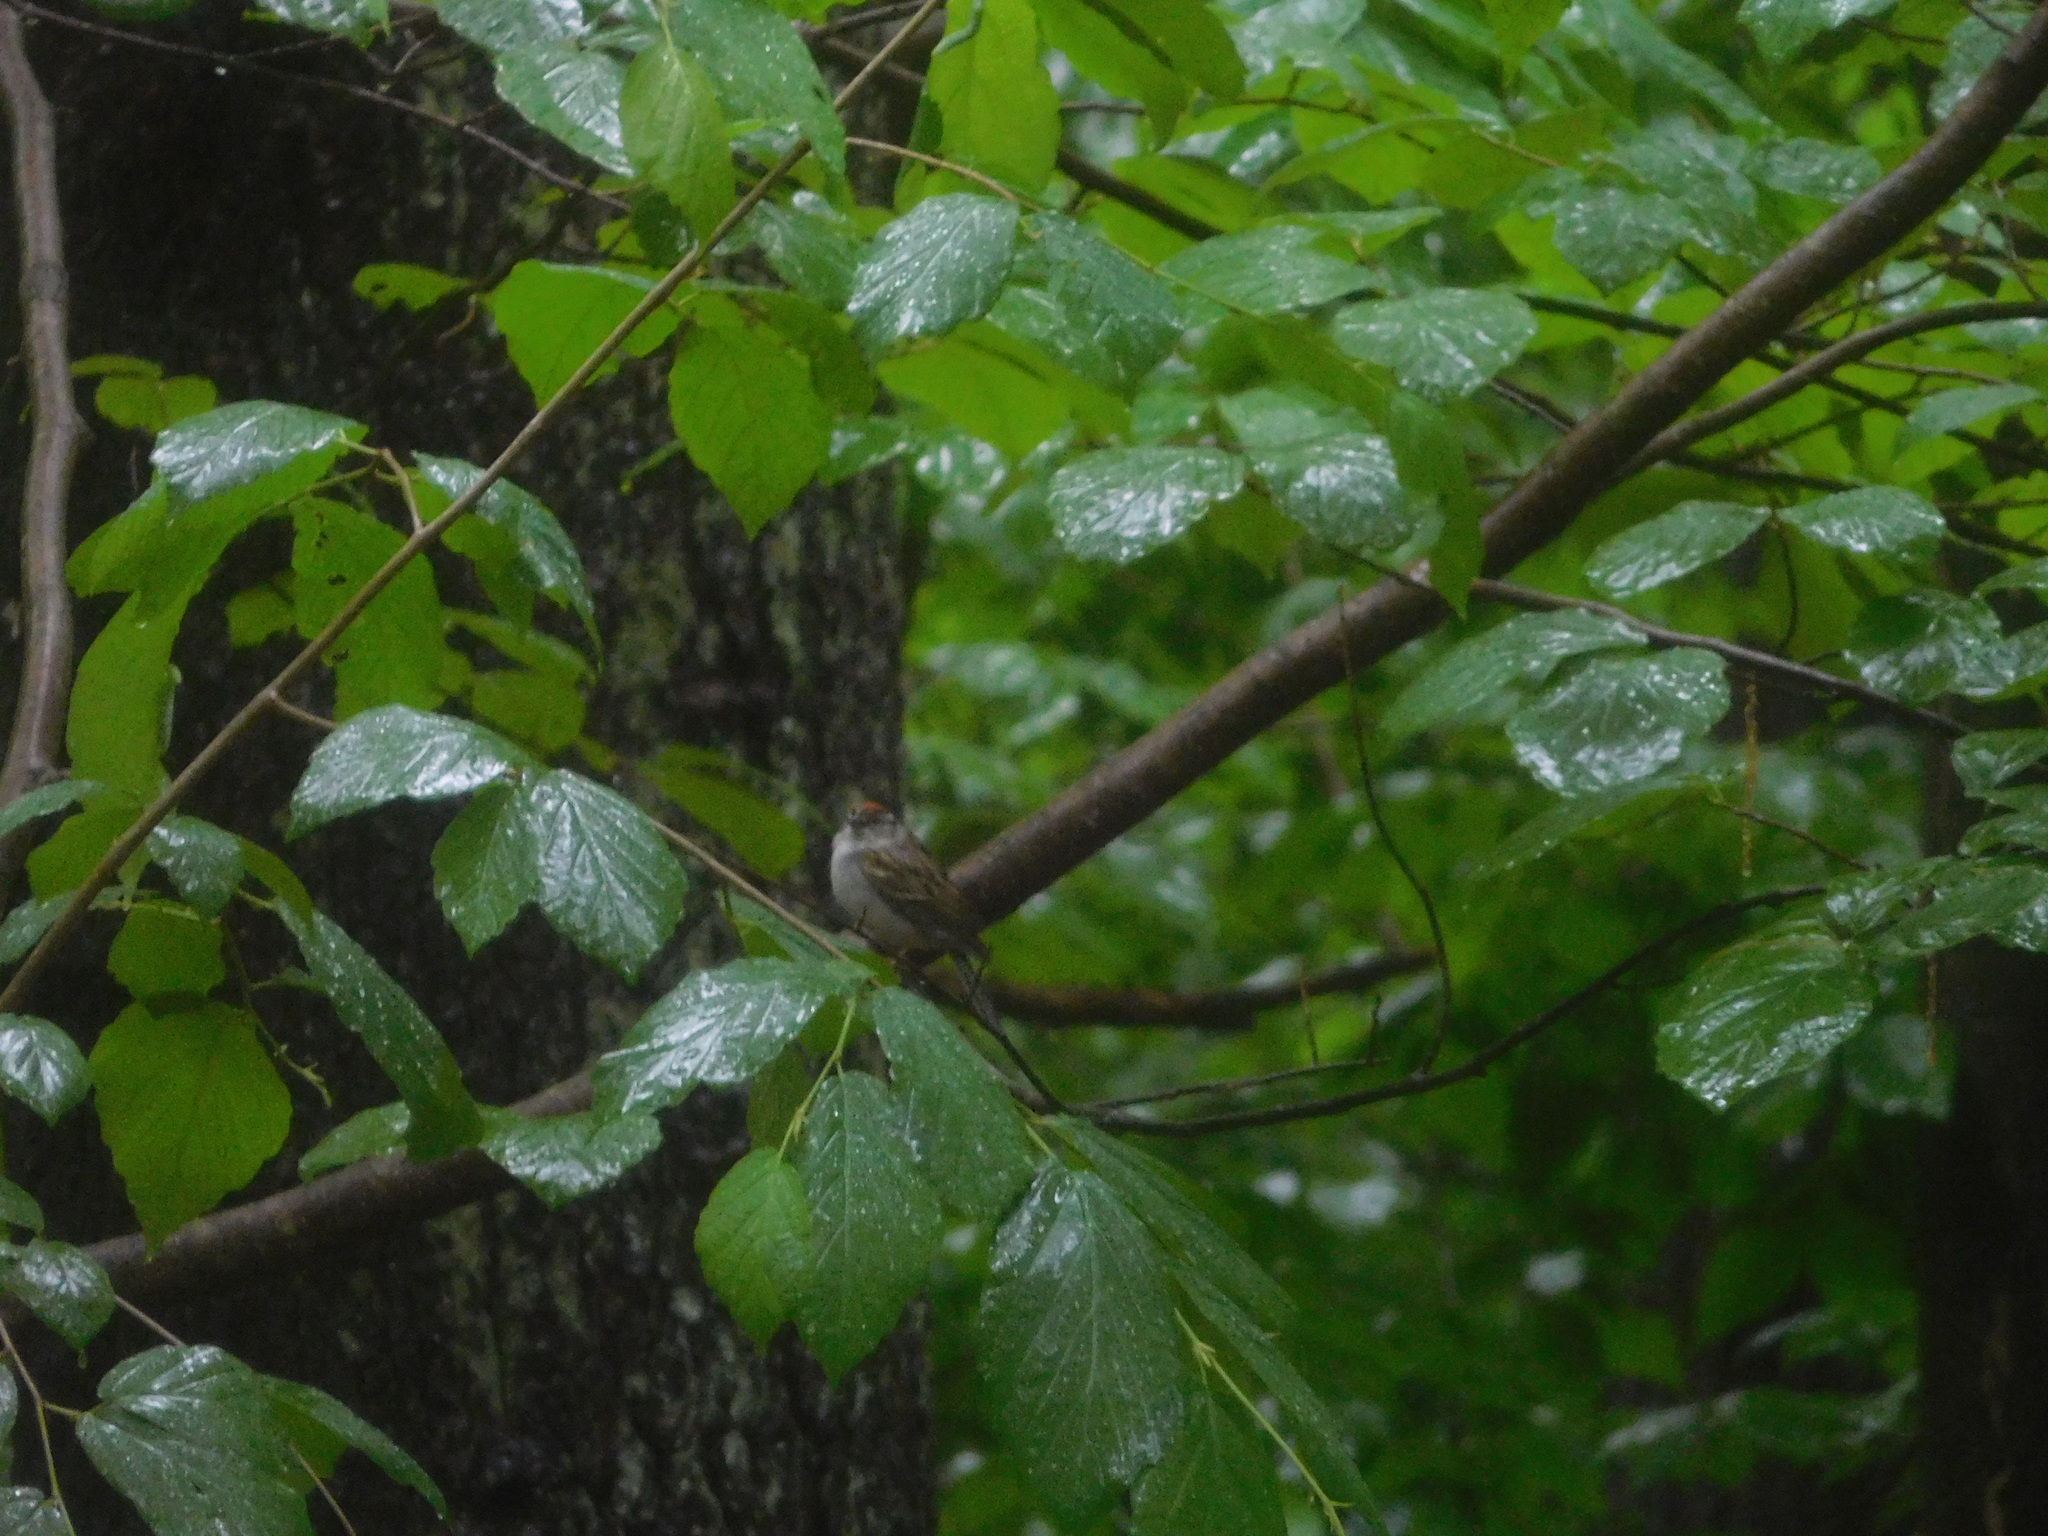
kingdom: Animalia
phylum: Chordata
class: Aves
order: Passeriformes
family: Passerellidae
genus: Spizella
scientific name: Spizella passerina
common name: Chipping sparrow
